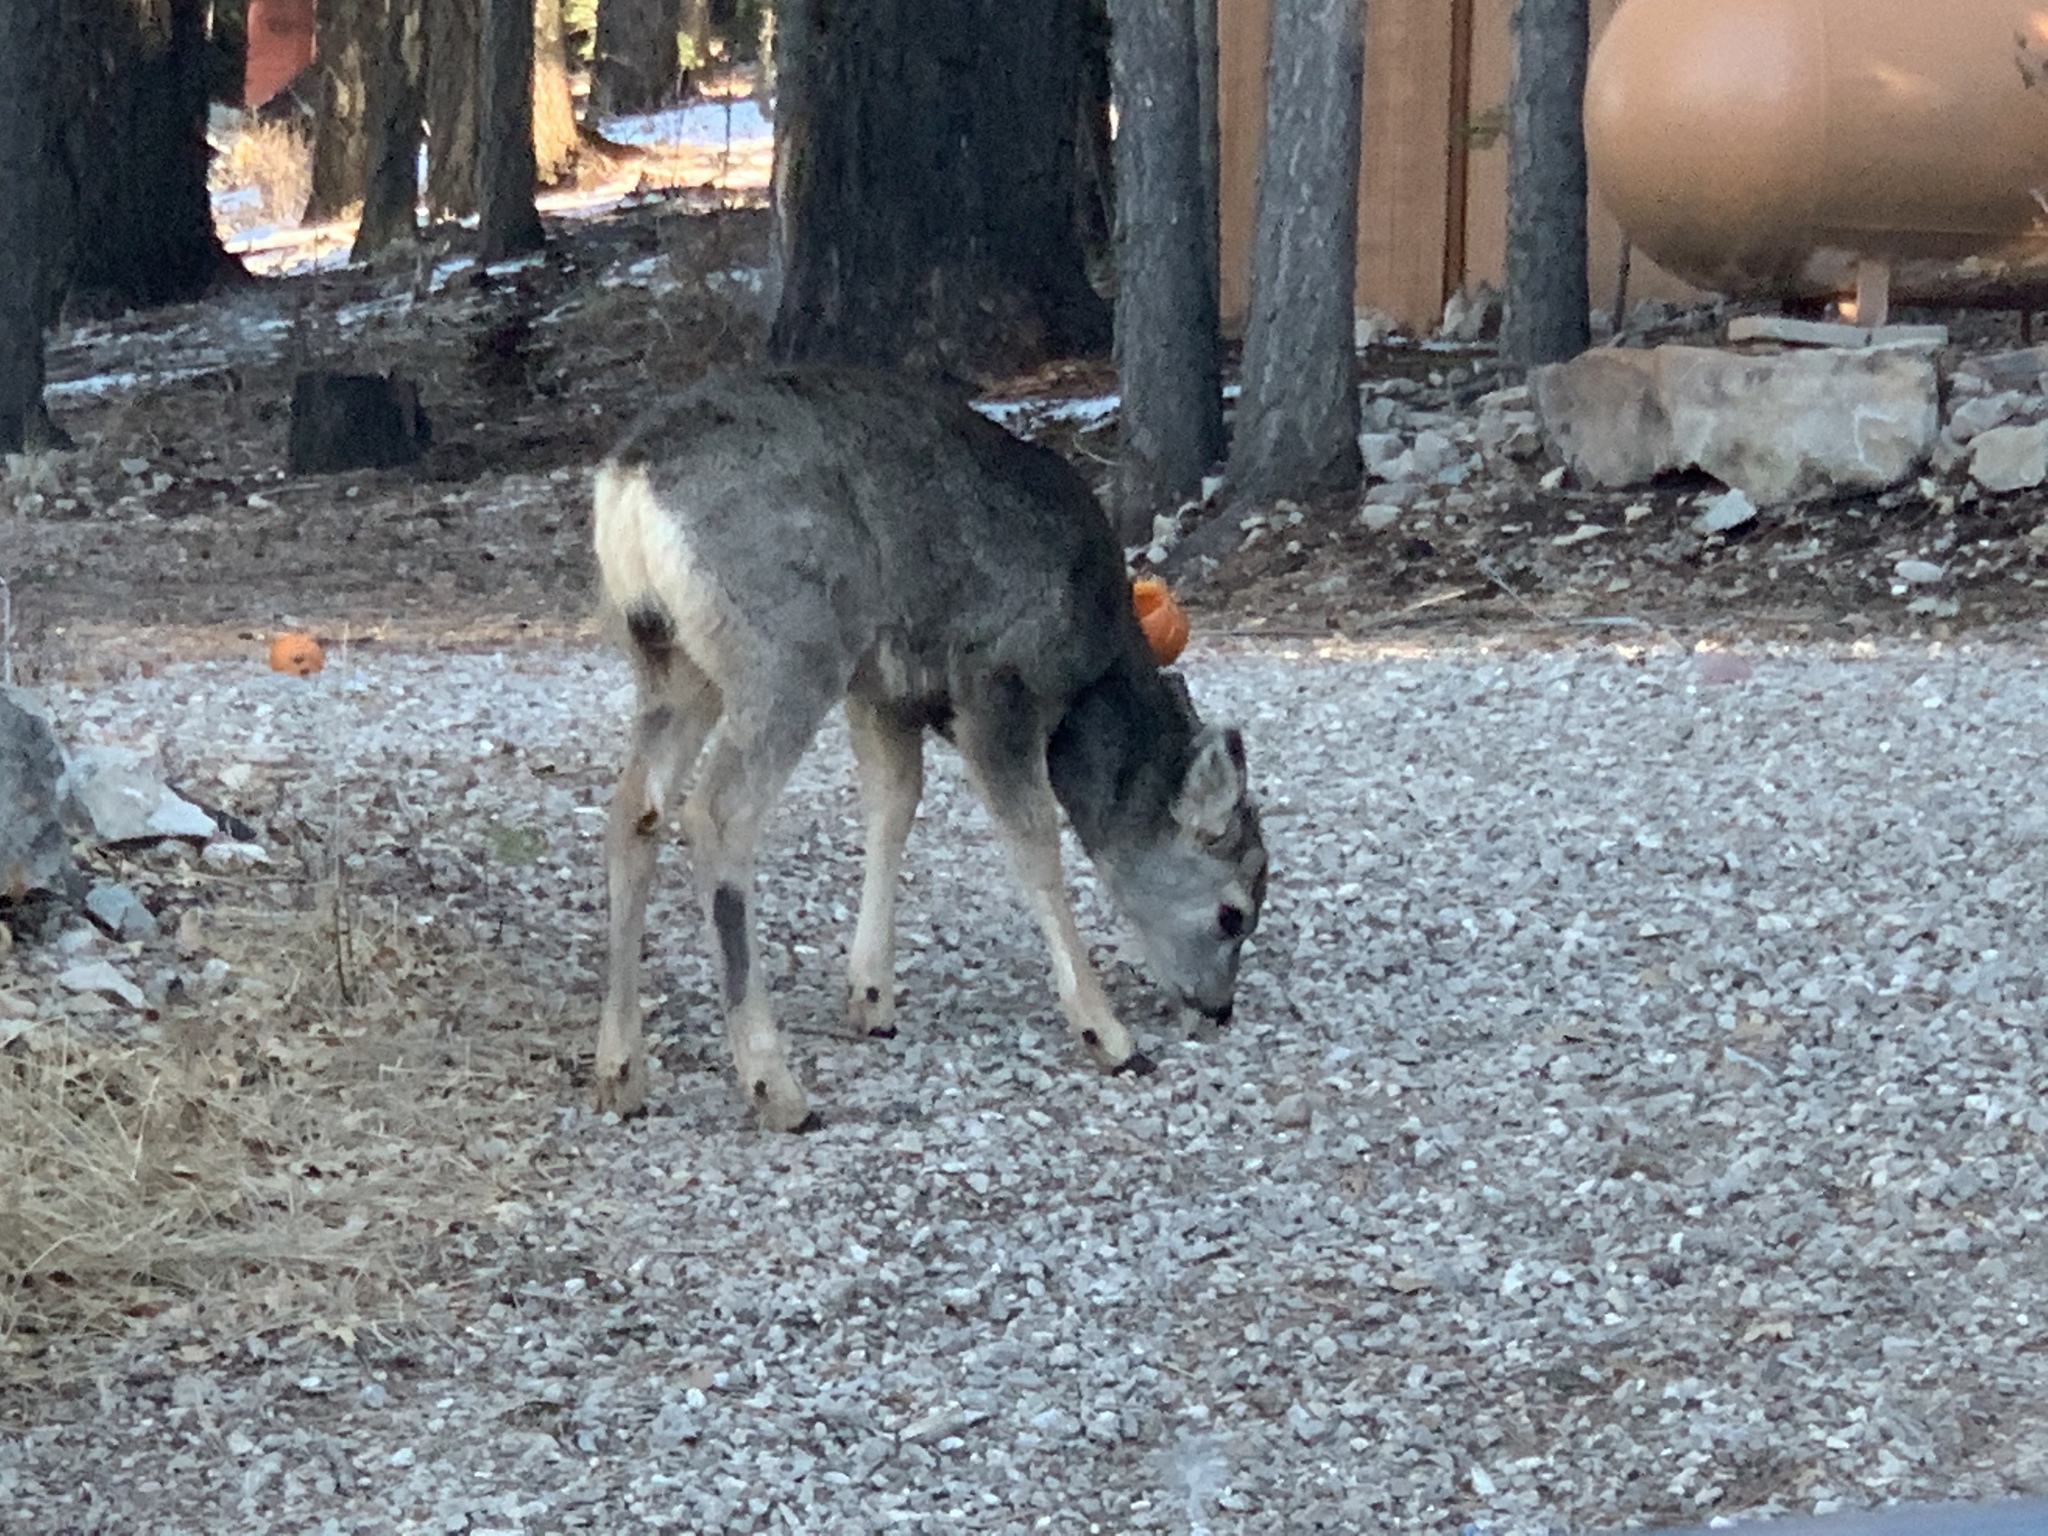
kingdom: Animalia
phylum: Chordata
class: Mammalia
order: Artiodactyla
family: Cervidae
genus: Odocoileus
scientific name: Odocoileus hemionus
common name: Mule deer
